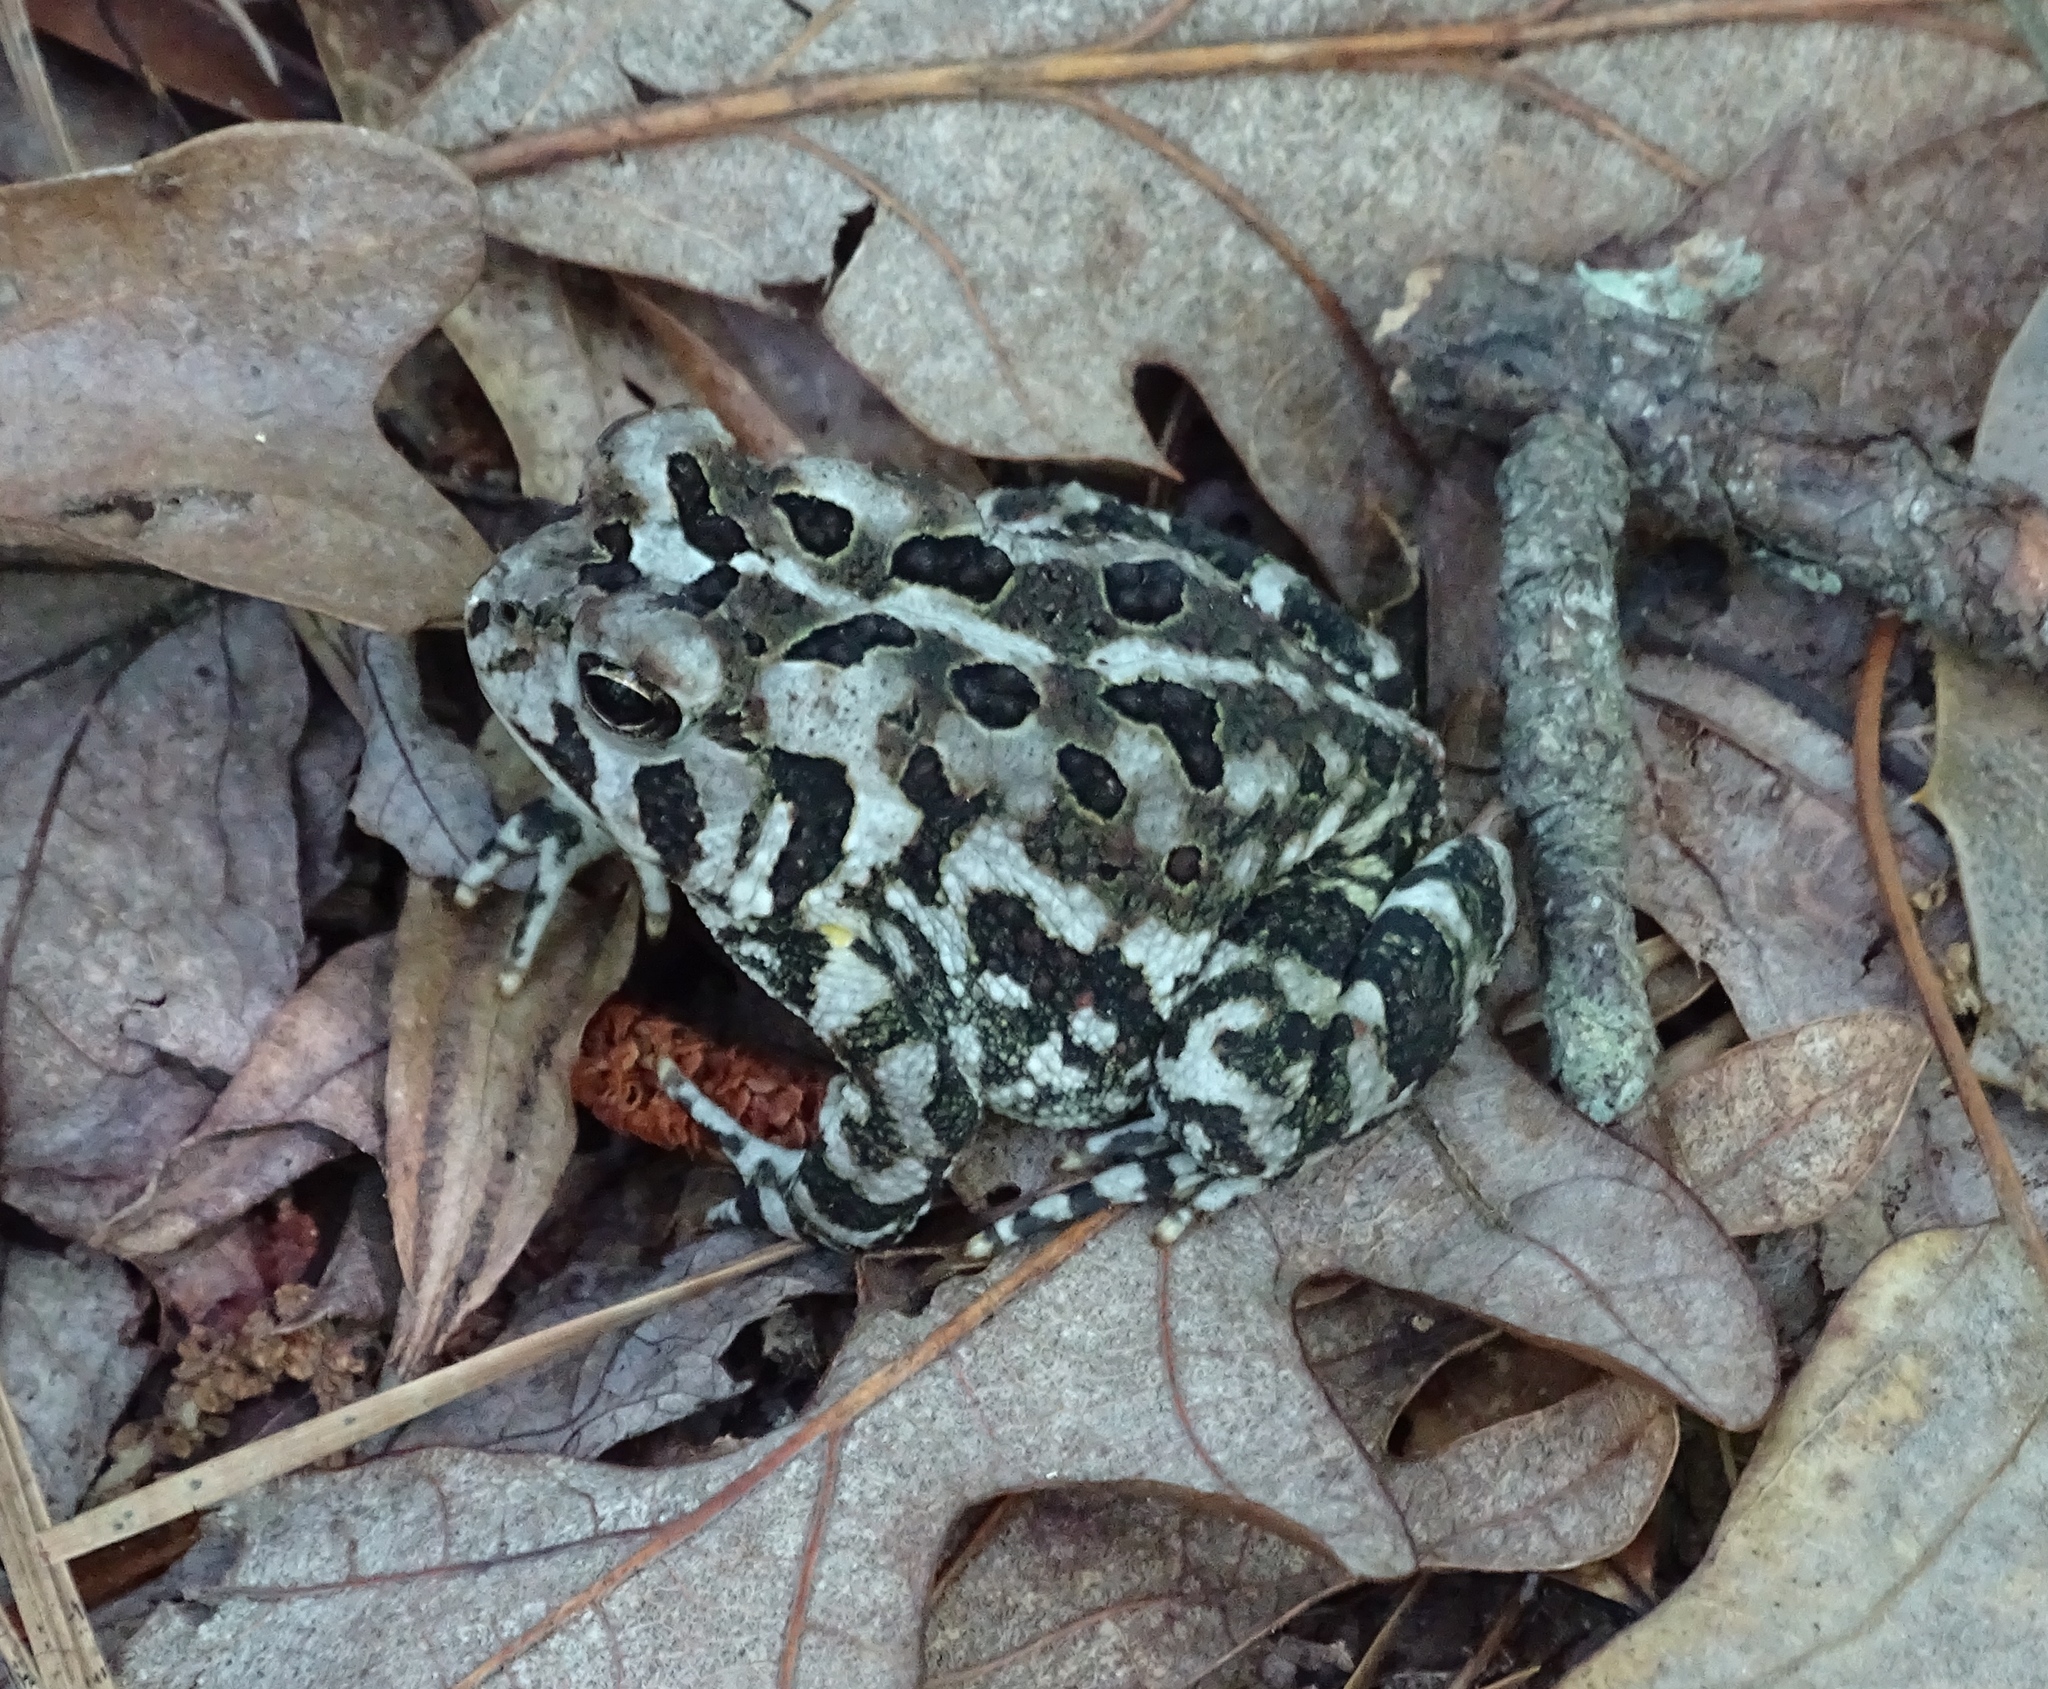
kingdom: Animalia
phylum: Chordata
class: Amphibia
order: Anura
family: Bufonidae
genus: Anaxyrus
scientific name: Anaxyrus fowleri
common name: Fowler's toad
